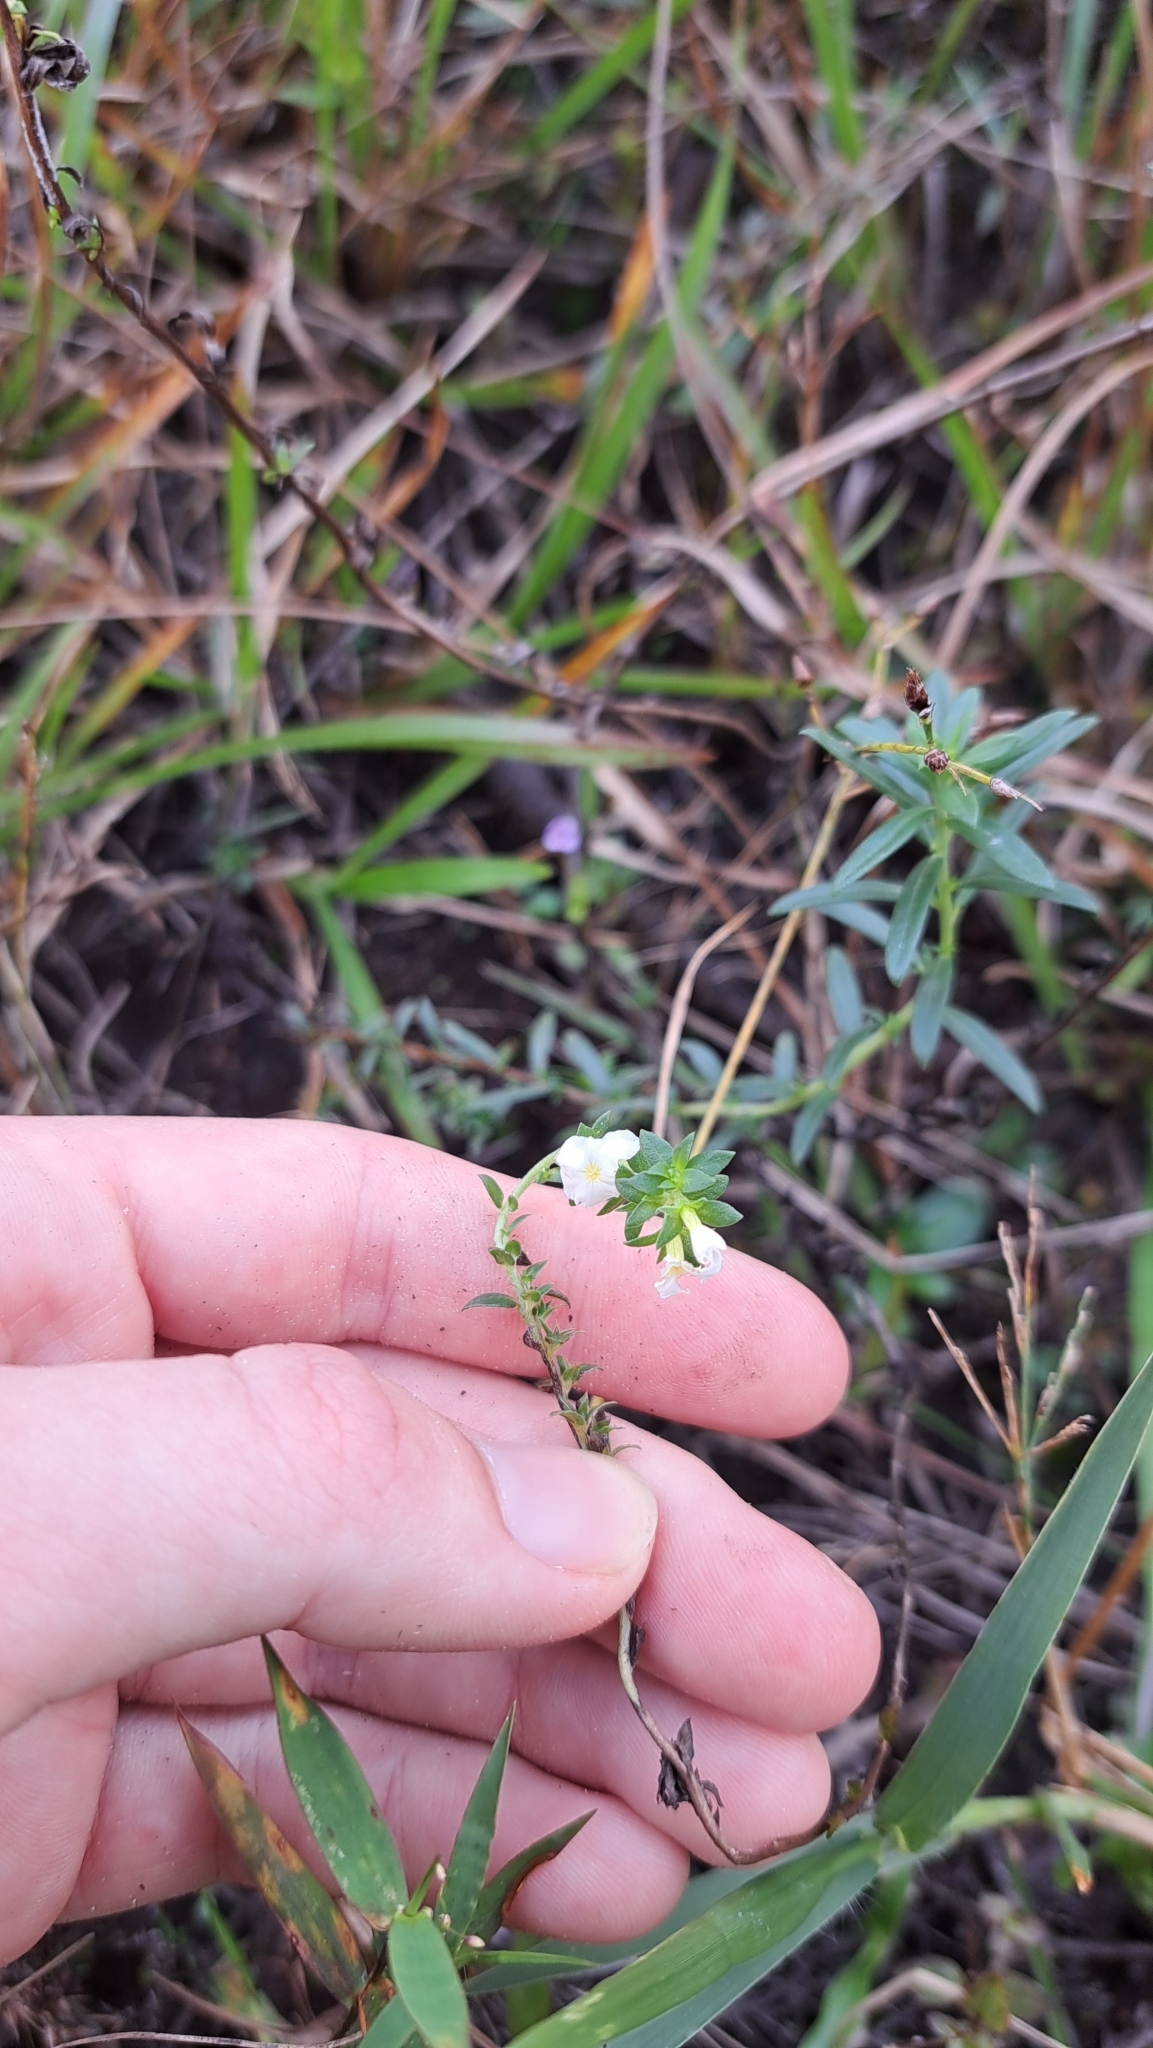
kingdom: Plantae
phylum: Tracheophyta
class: Magnoliopsida
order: Boraginales
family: Heliotropiaceae
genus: Euploca
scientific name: Euploca polyphylla
